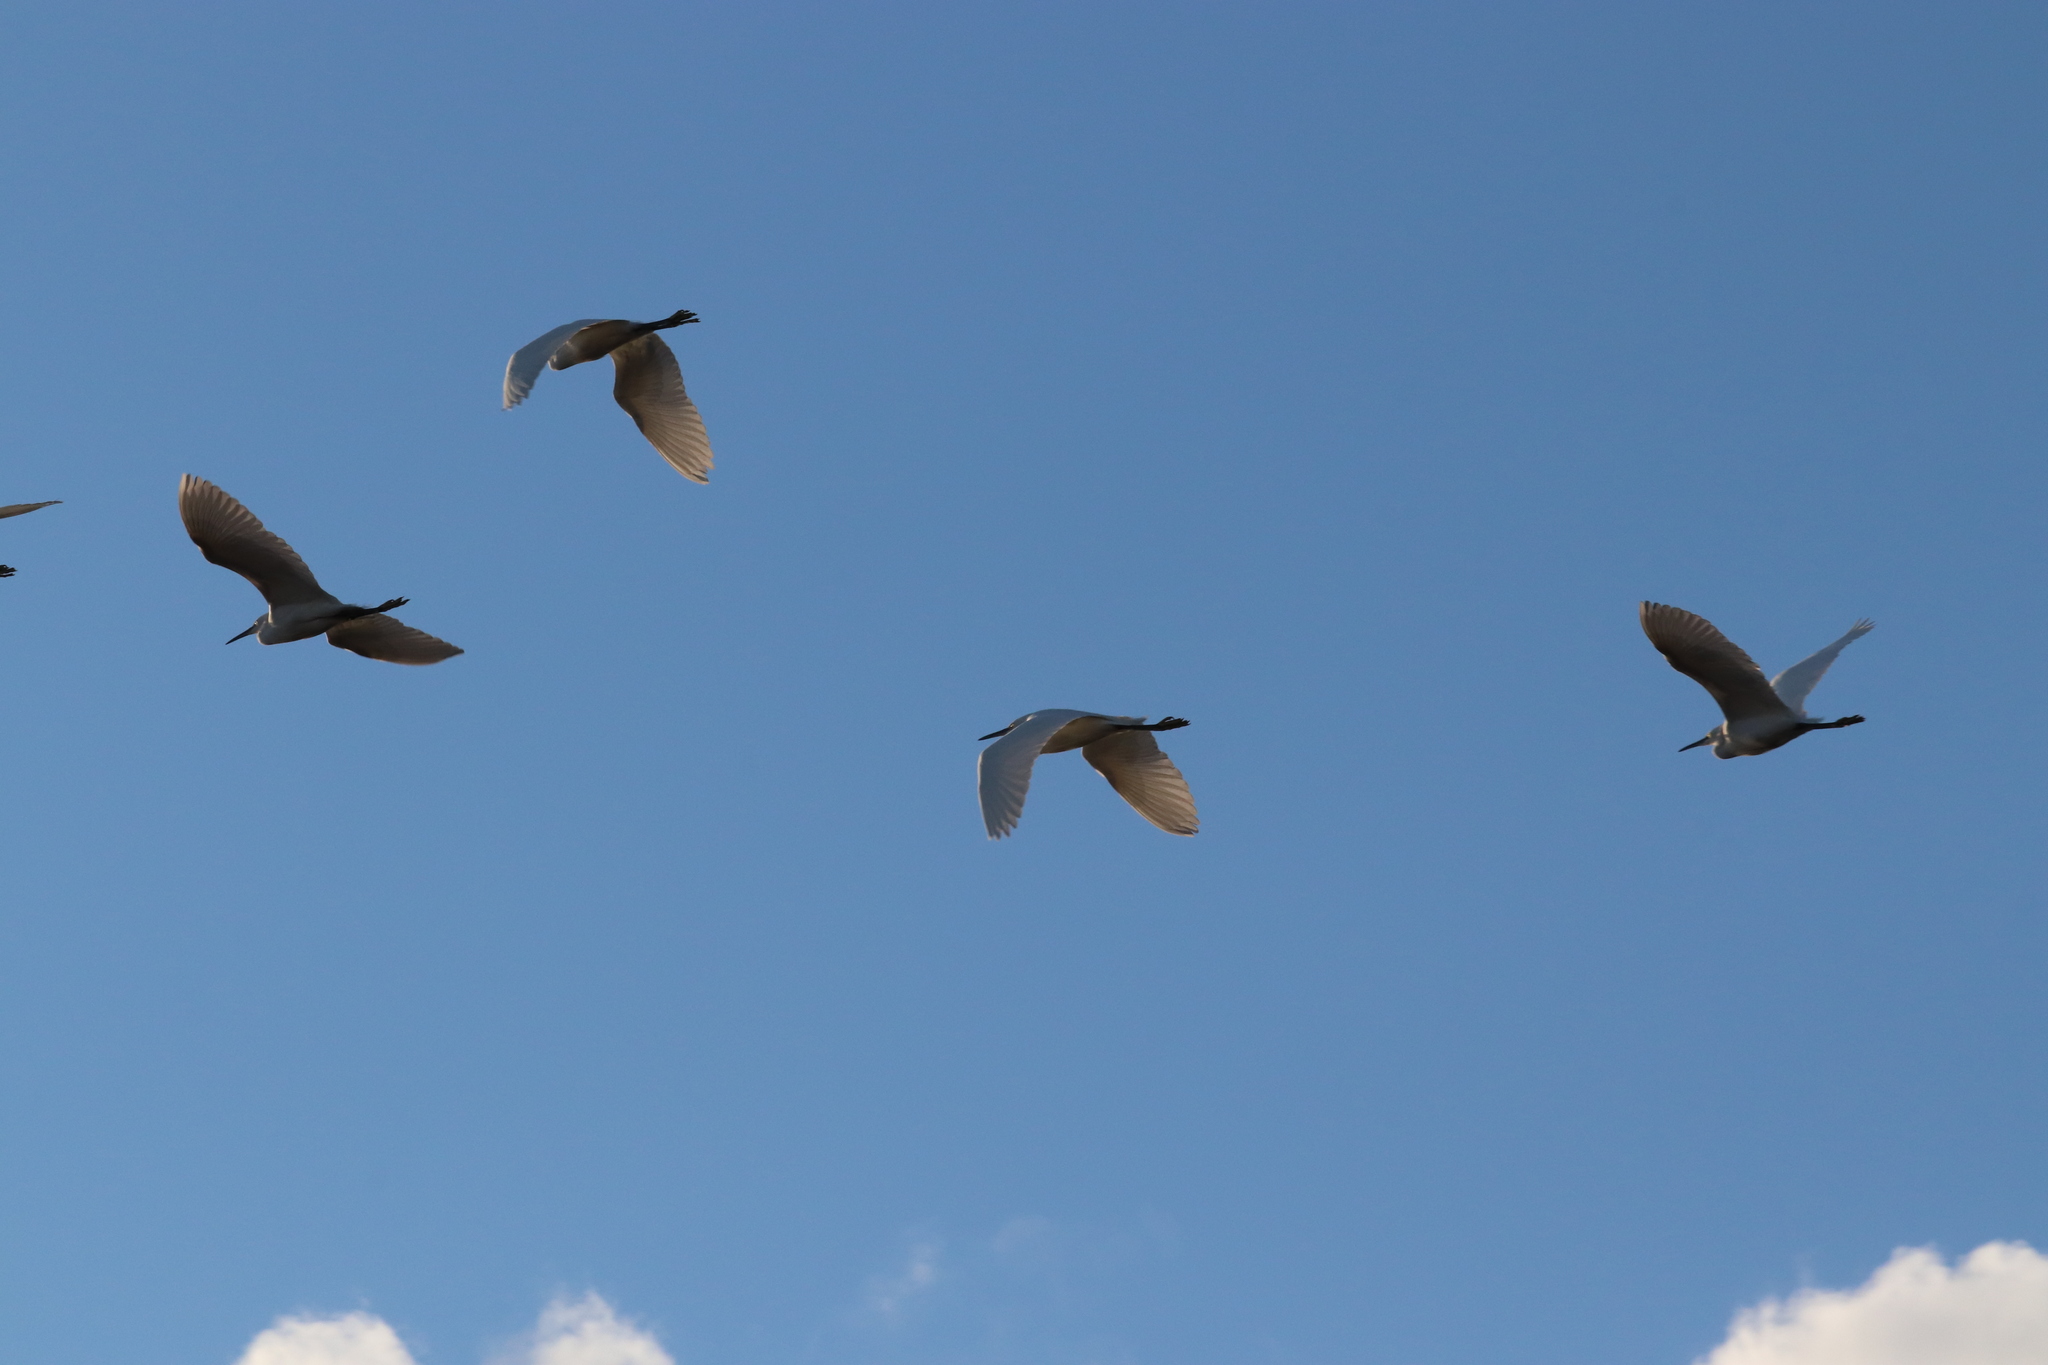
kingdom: Animalia
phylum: Chordata
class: Aves
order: Pelecaniformes
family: Ardeidae
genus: Egretta
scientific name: Egretta garzetta
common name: Little egret
